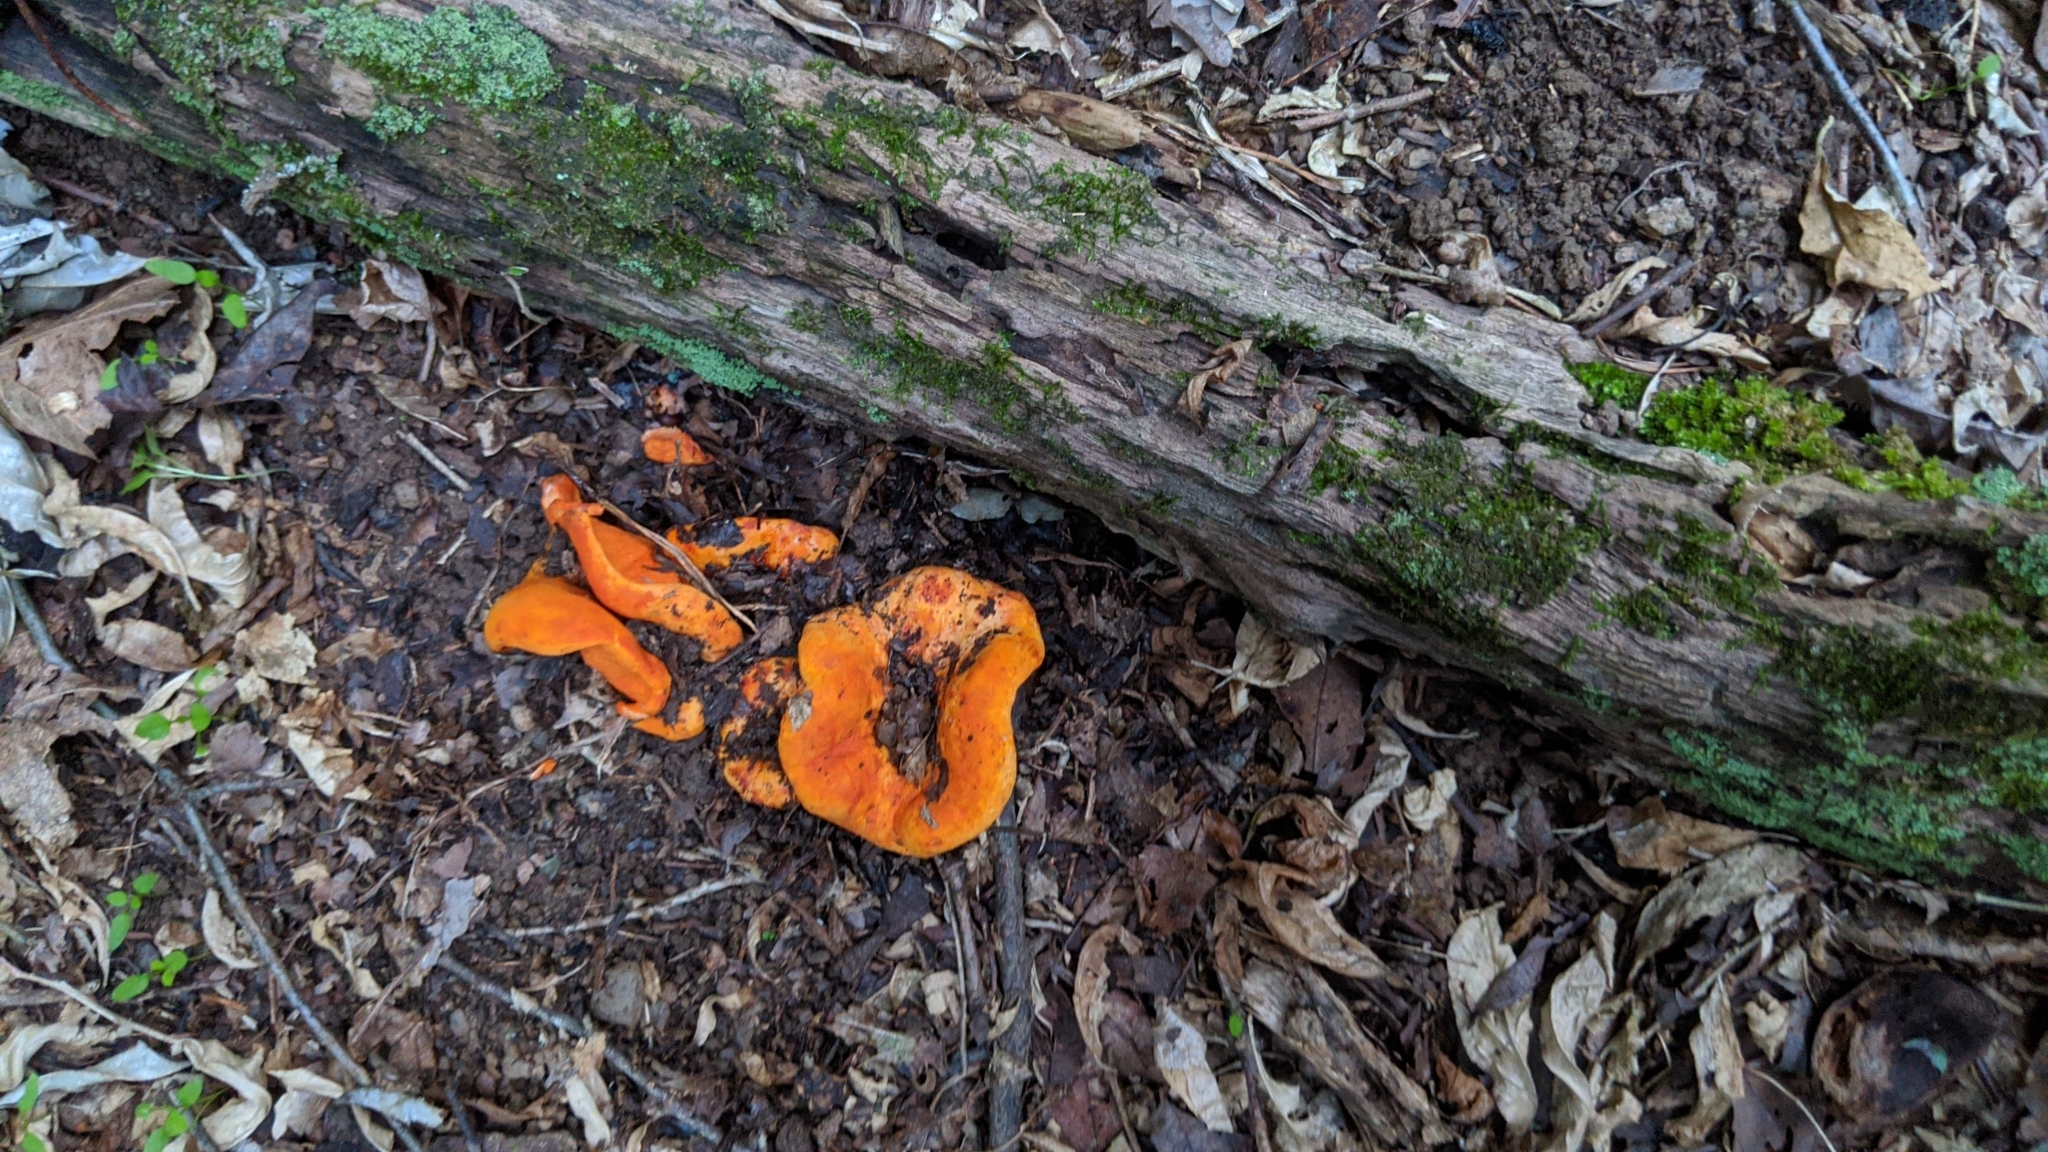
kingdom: Fungi
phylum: Ascomycota
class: Sordariomycetes
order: Hypocreales
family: Hypocreaceae
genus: Hypomyces
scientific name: Hypomyces lactifluorum
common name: Lobster mushroom
